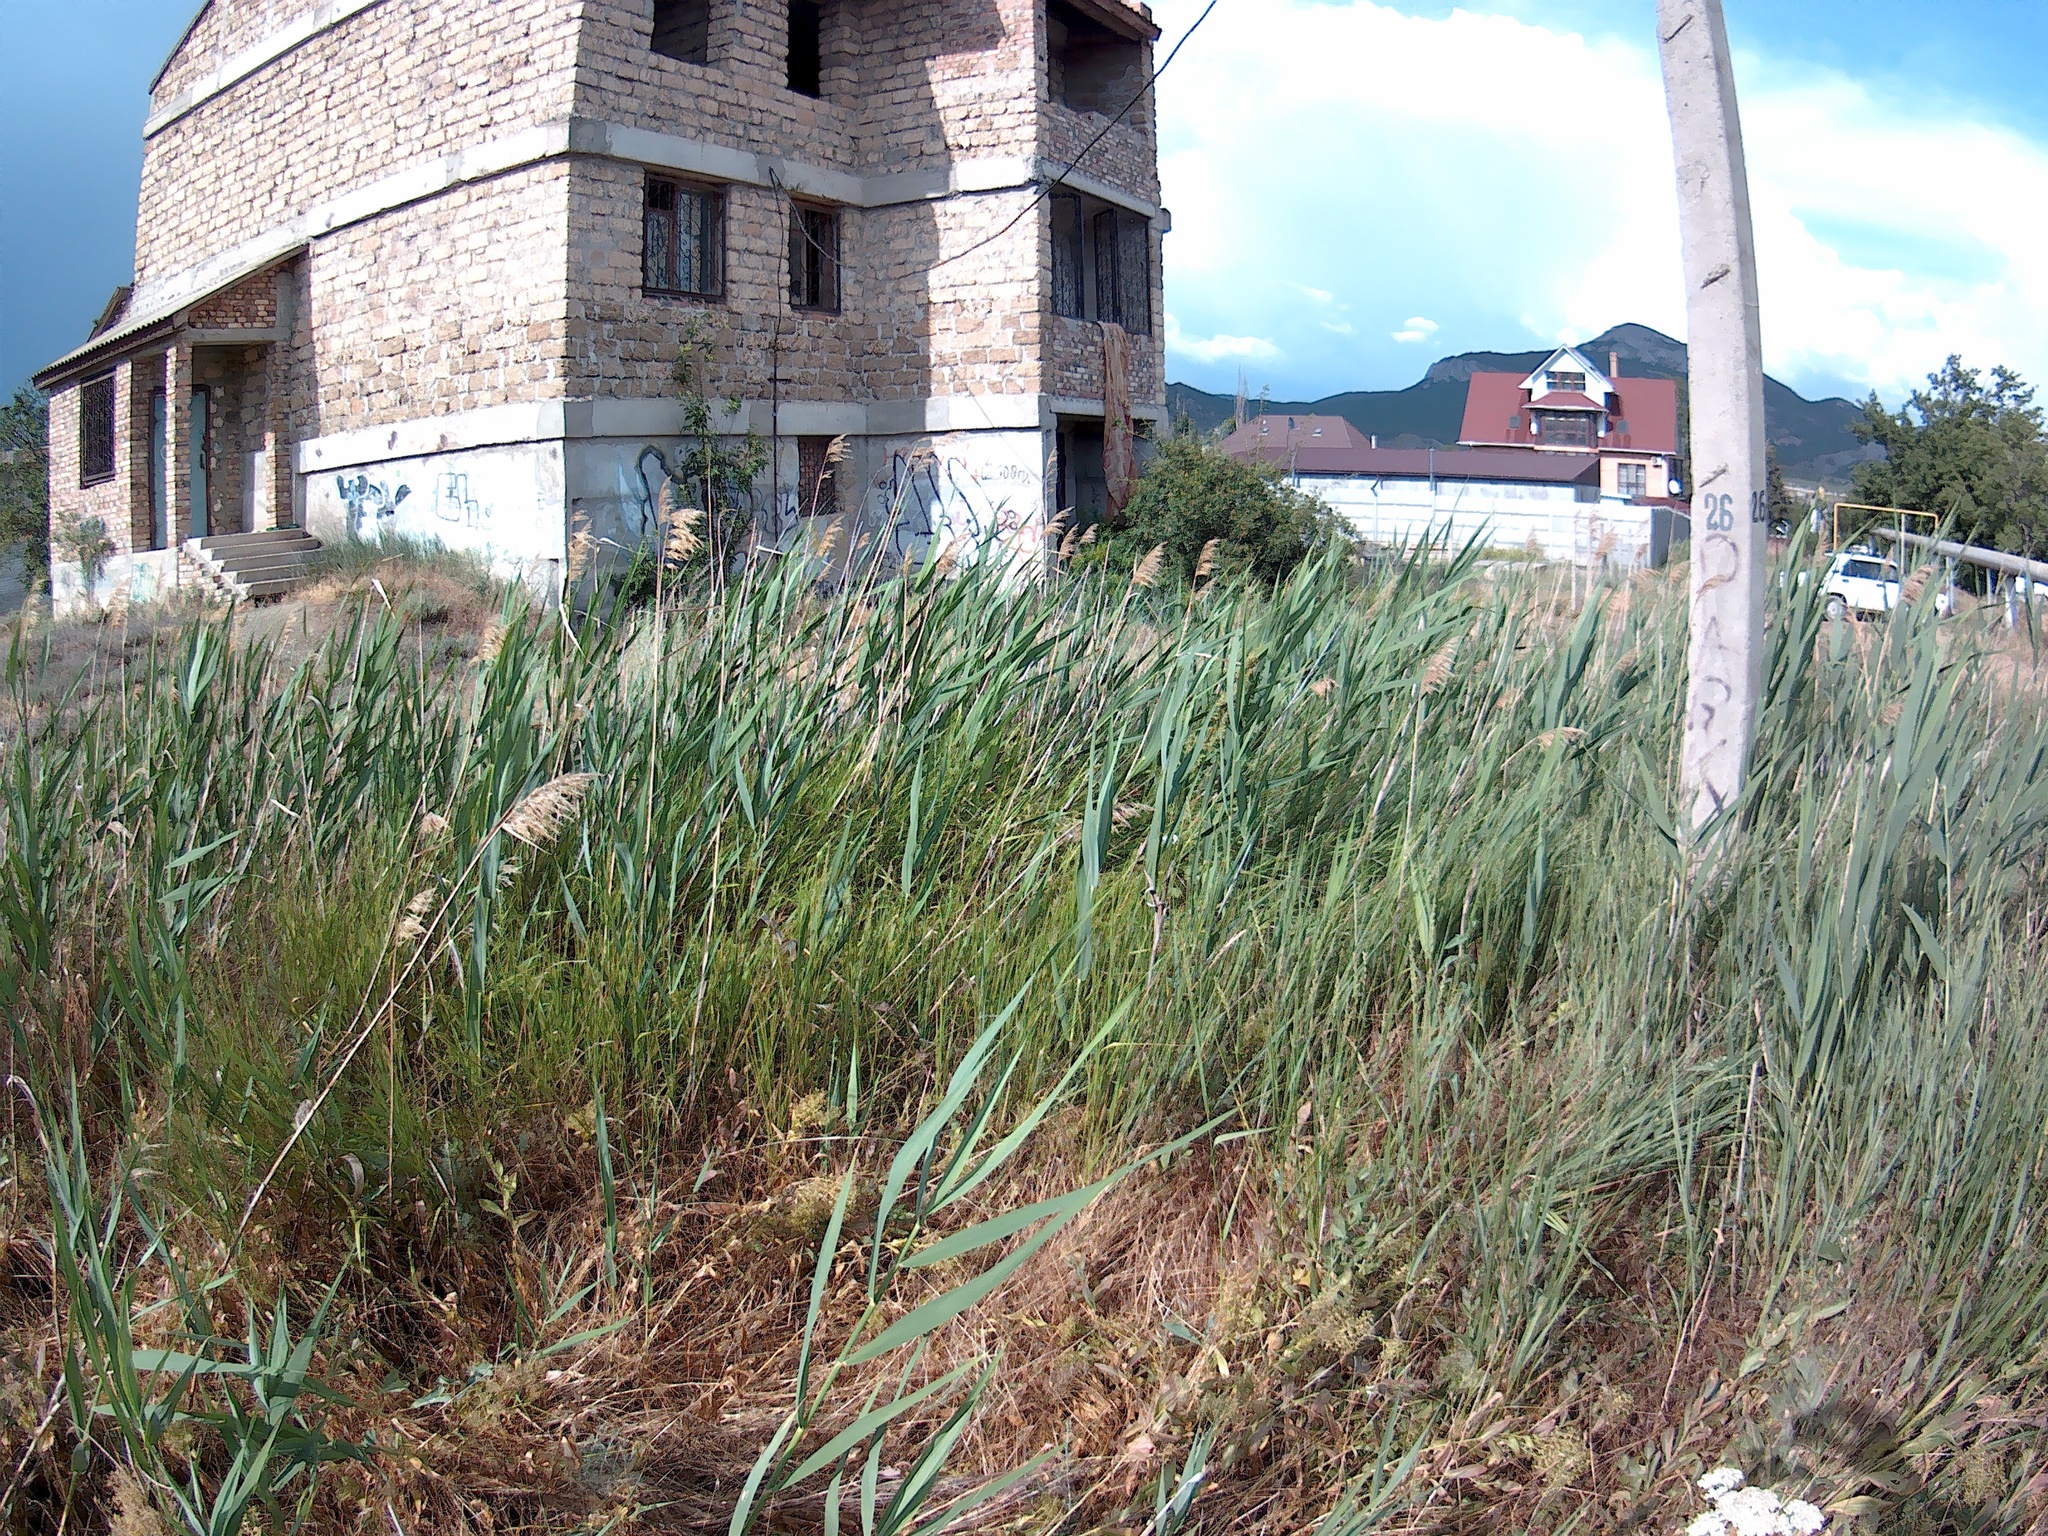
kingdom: Plantae
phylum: Tracheophyta
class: Liliopsida
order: Poales
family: Poaceae
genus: Phragmites
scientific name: Phragmites australis
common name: Common reed
